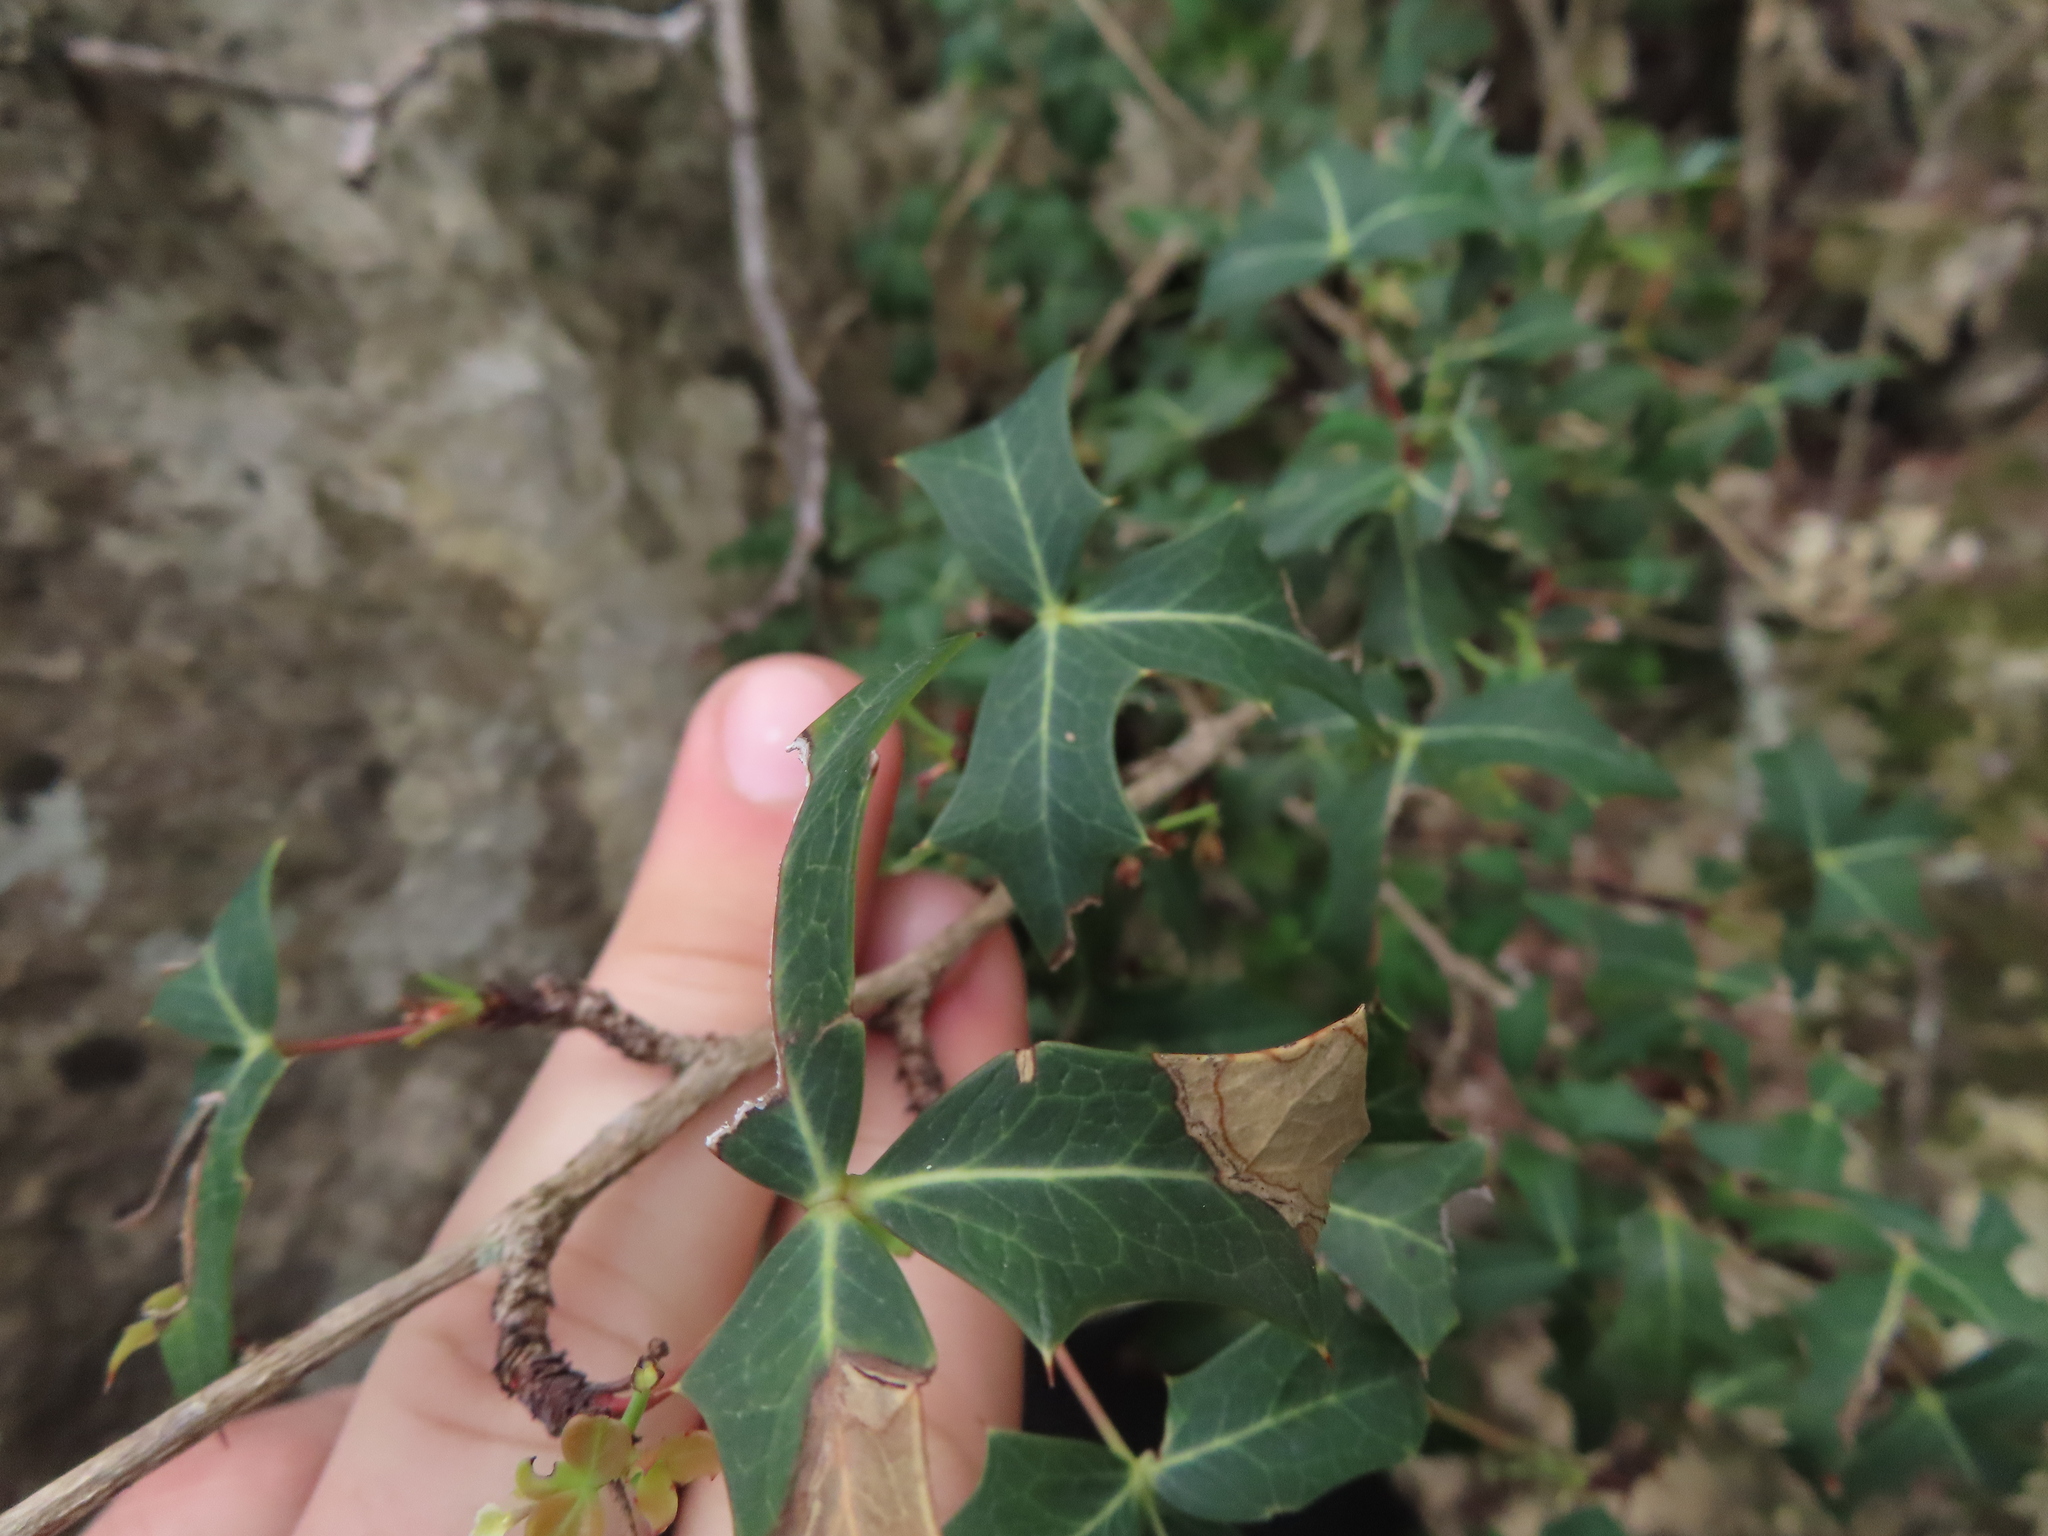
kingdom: Plantae
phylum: Tracheophyta
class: Magnoliopsida
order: Ranunculales
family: Berberidaceae
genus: Alloberberis
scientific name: Alloberberis trifoliolata
